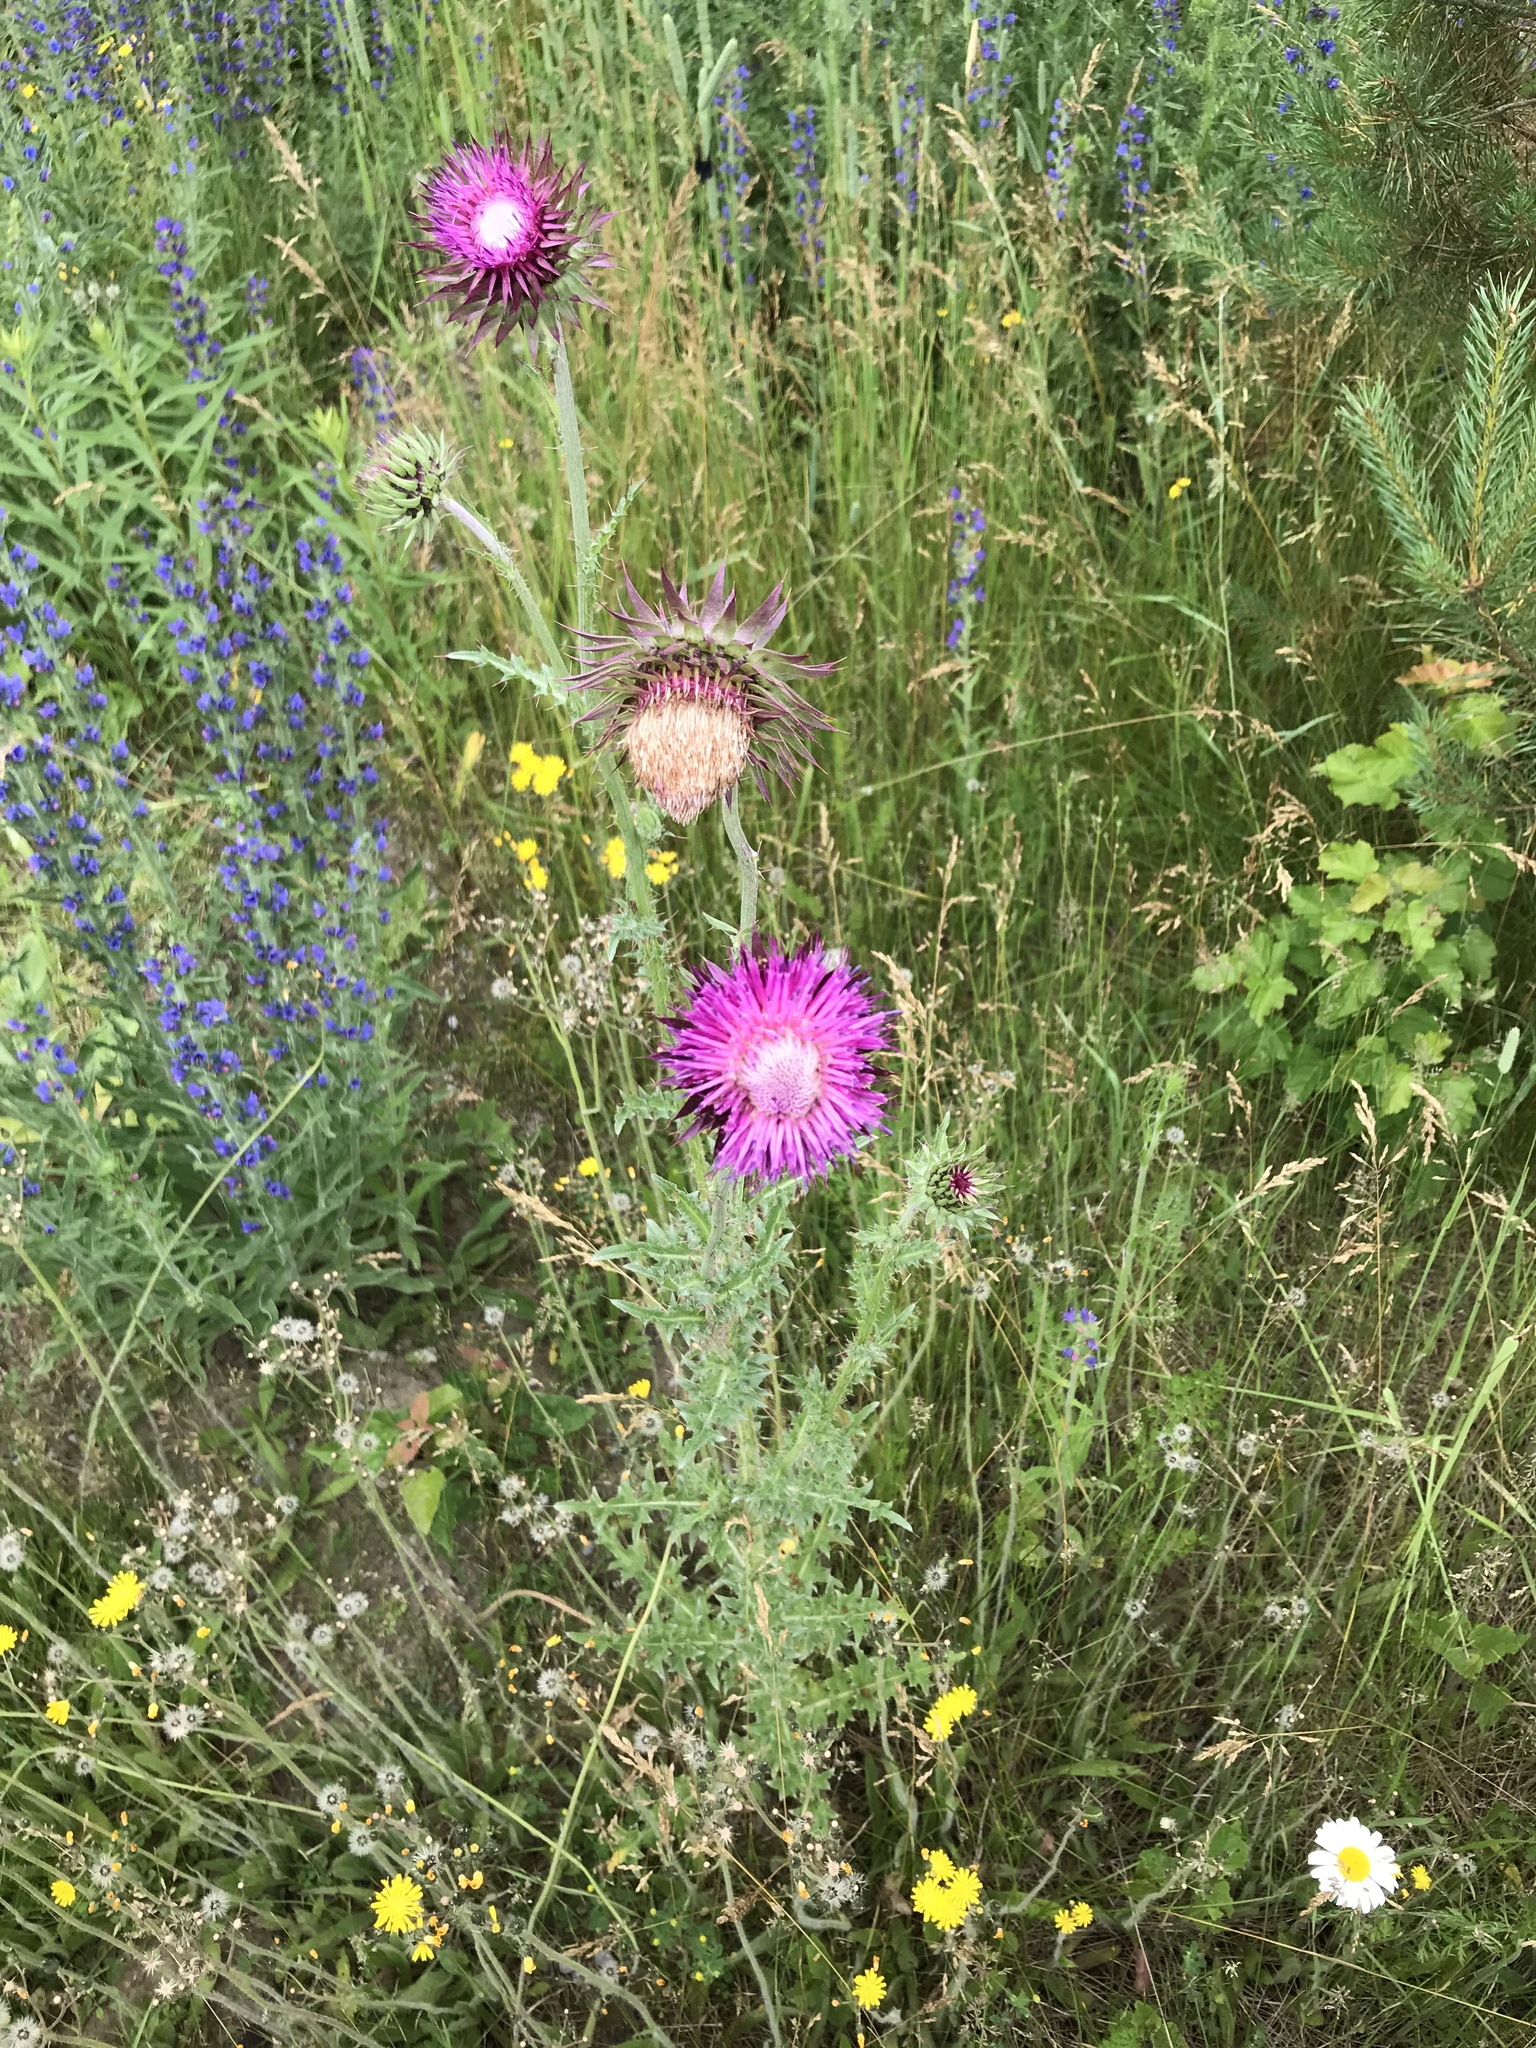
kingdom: Plantae
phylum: Tracheophyta
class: Magnoliopsida
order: Asterales
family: Asteraceae
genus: Carduus
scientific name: Carduus nutans
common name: Musk thistle
